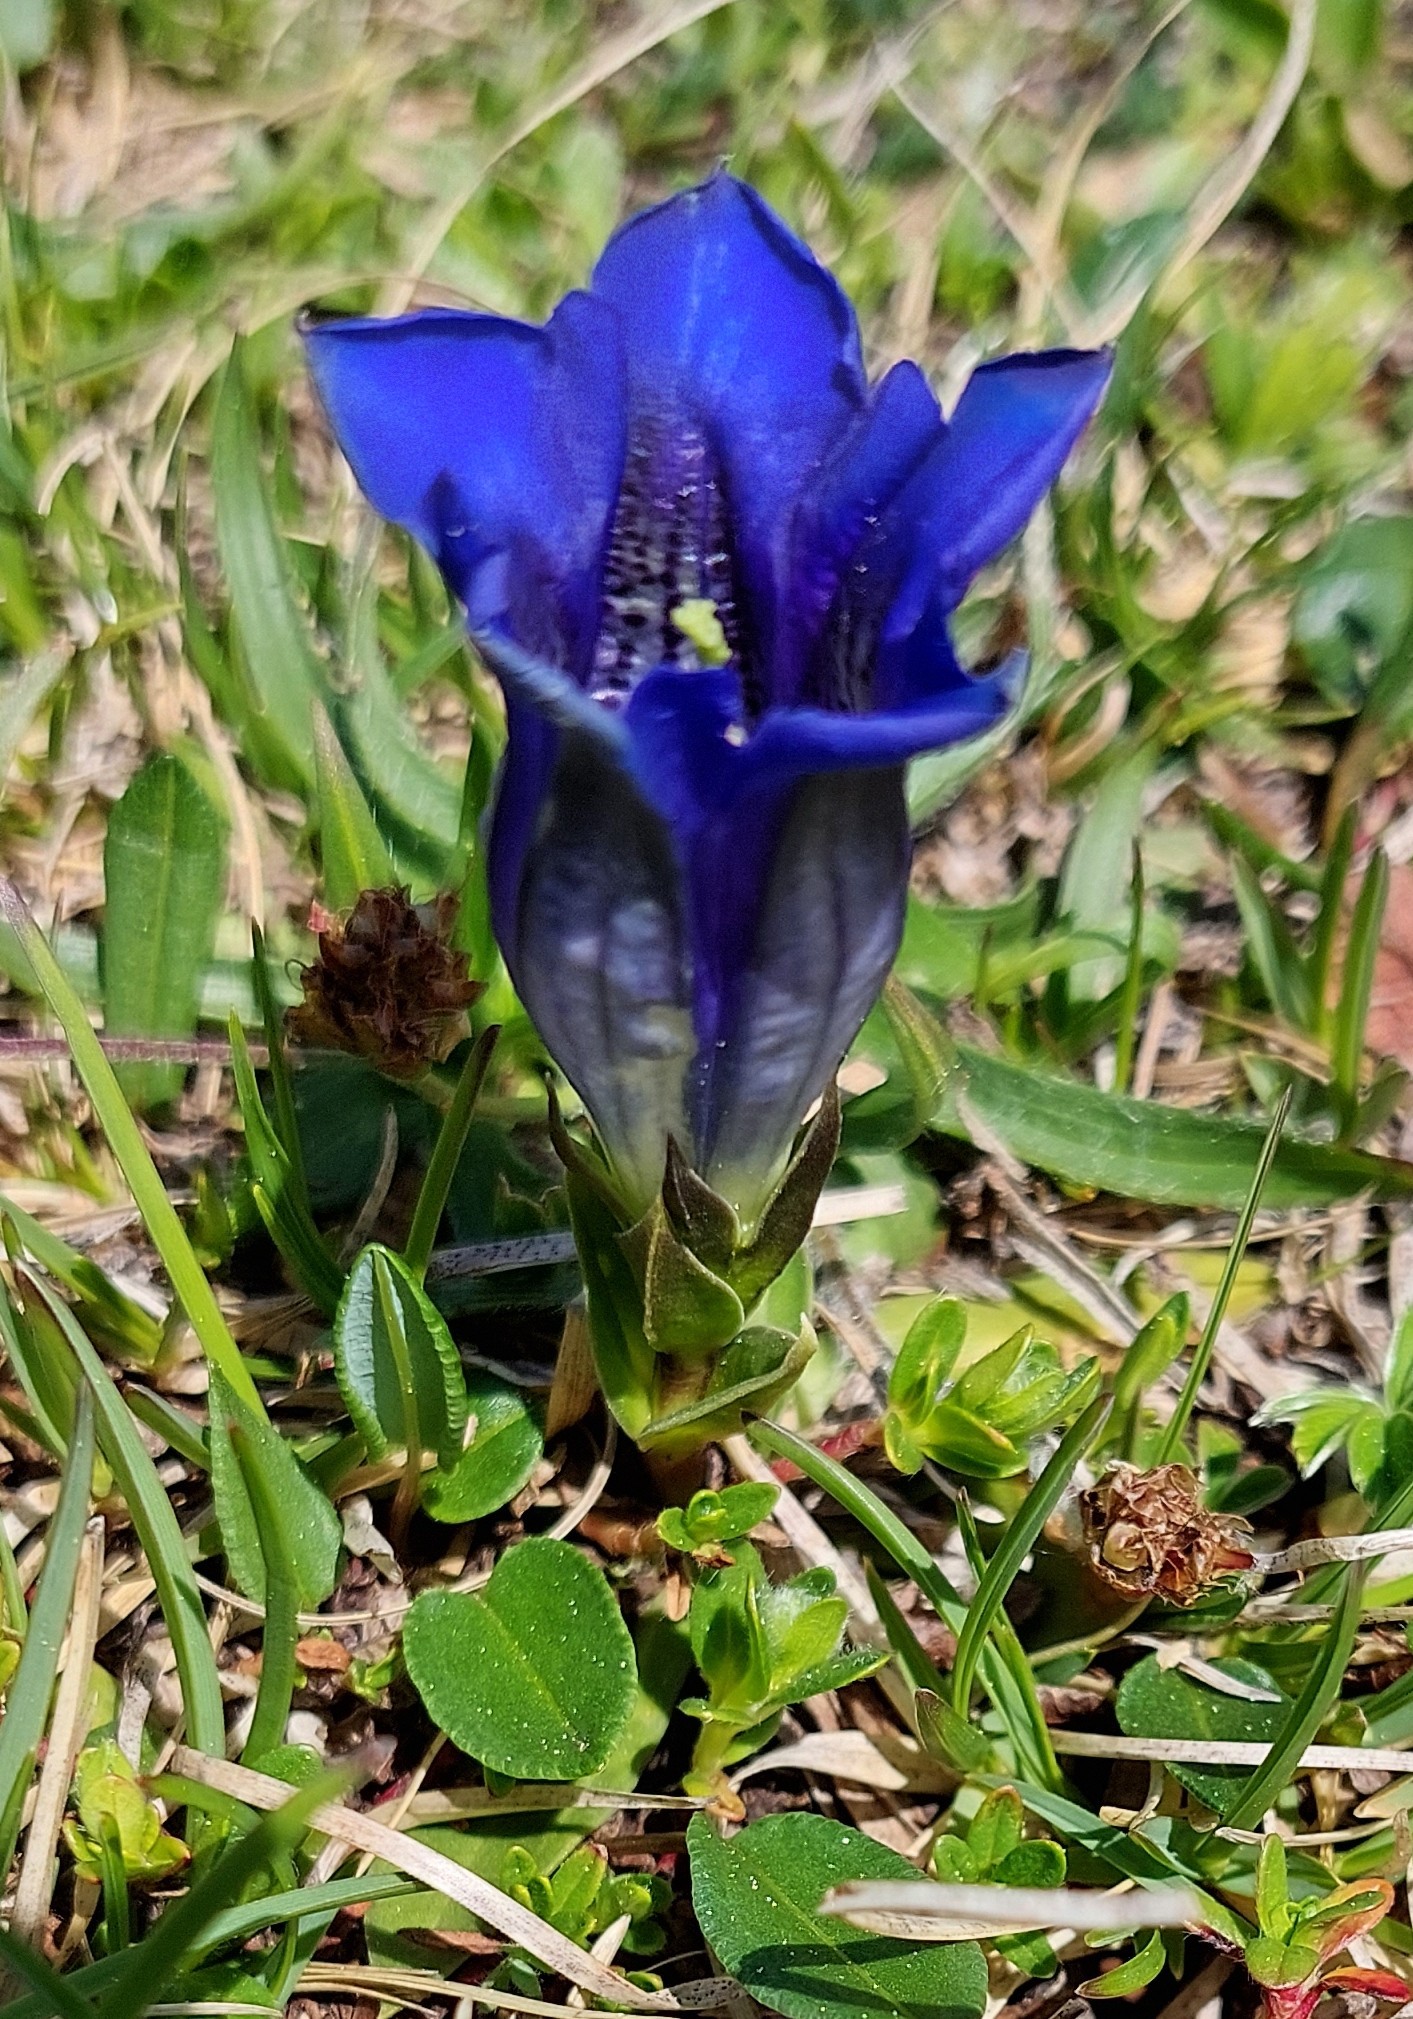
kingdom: Plantae
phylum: Tracheophyta
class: Magnoliopsida
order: Gentianales
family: Gentianaceae
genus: Gentiana
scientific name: Gentiana clusii
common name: Trumpet gentian
